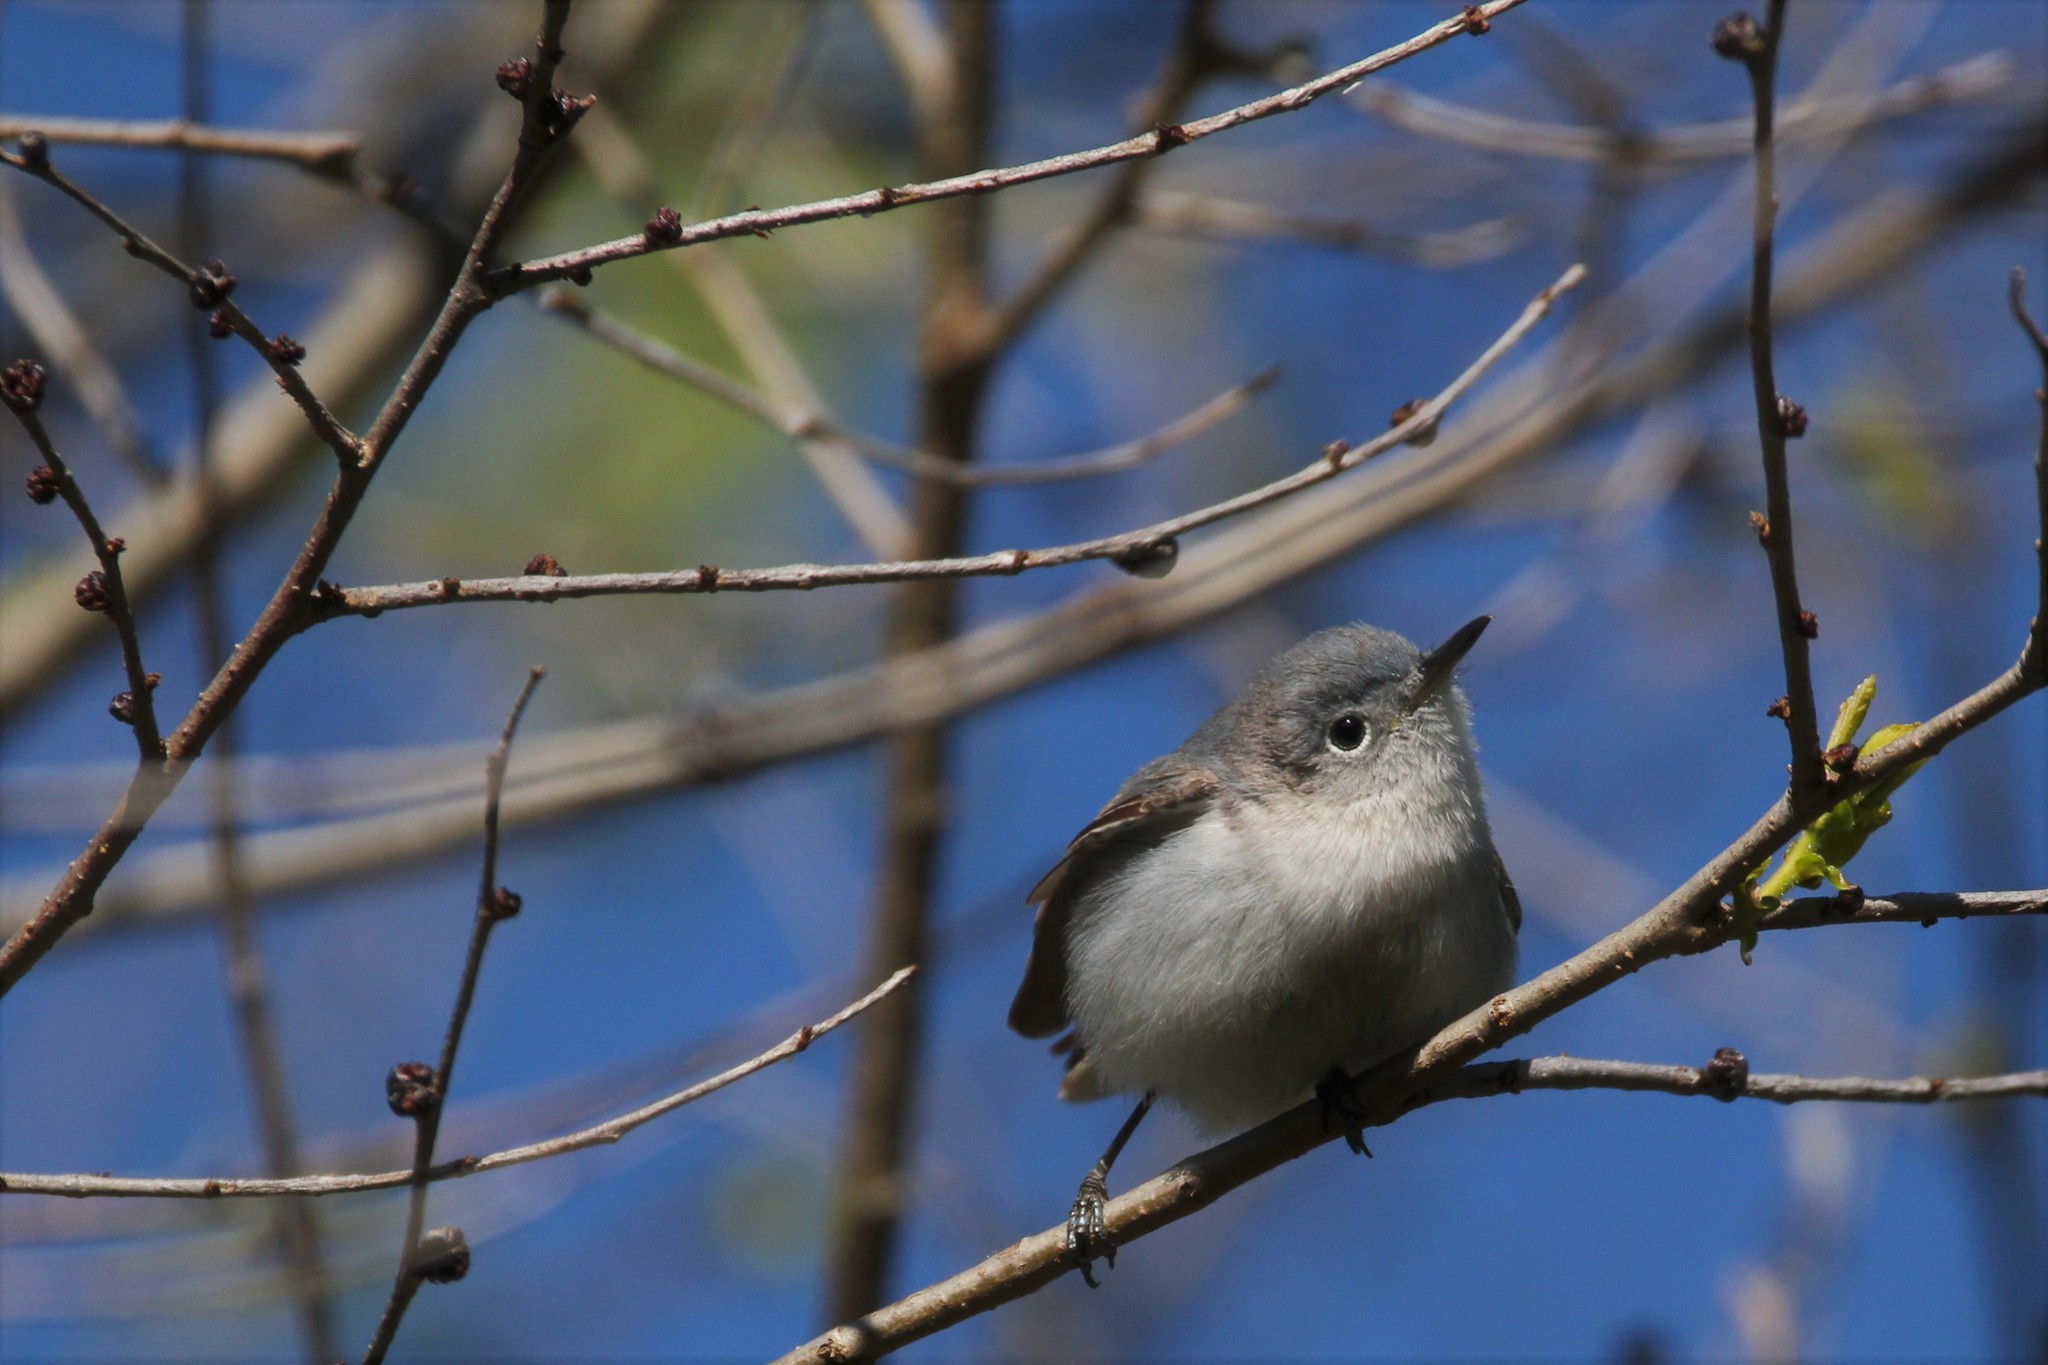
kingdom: Animalia
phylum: Chordata
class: Aves
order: Passeriformes
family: Polioptilidae
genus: Polioptila
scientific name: Polioptila caerulea
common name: Blue-gray gnatcatcher
